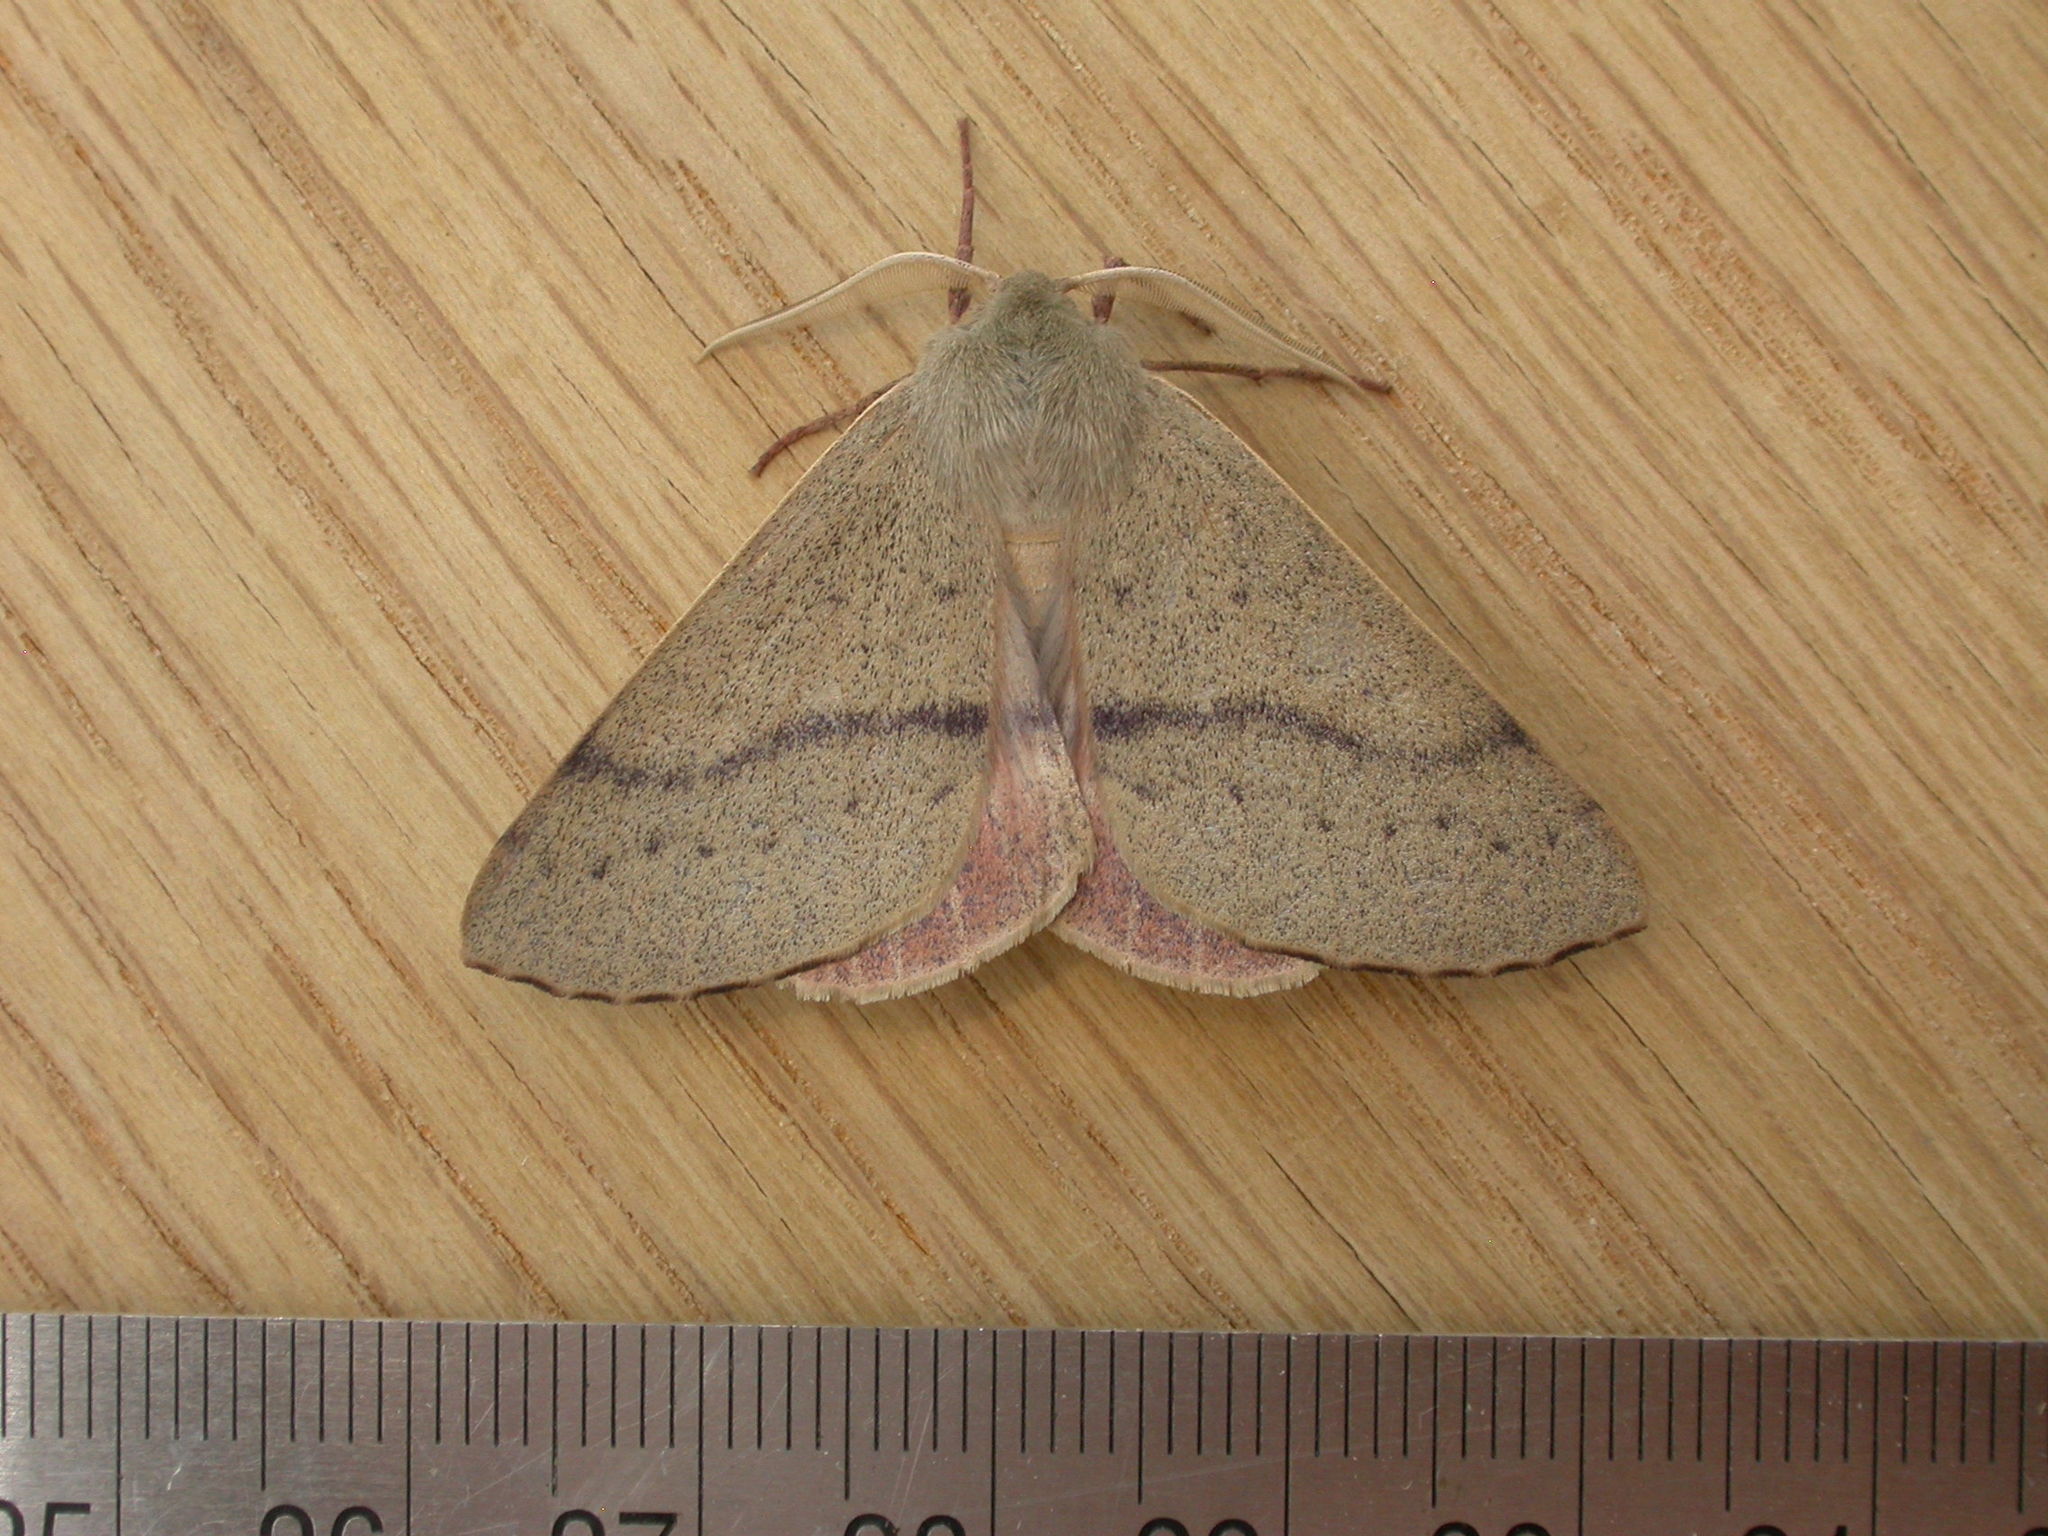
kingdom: Animalia
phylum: Arthropoda
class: Insecta
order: Lepidoptera
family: Geometridae
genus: Arhodia
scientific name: Arhodia lasiocamparia
